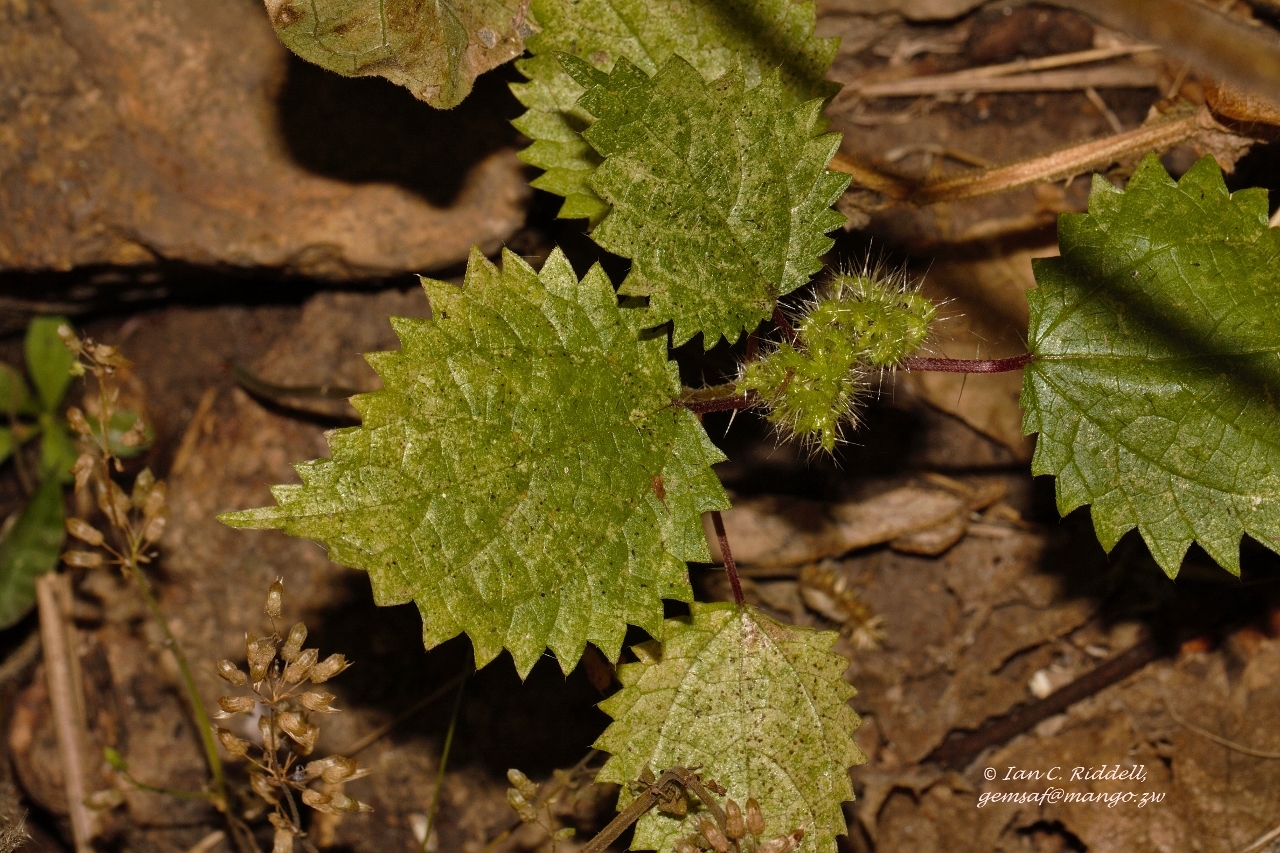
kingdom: Plantae
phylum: Tracheophyta
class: Magnoliopsida
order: Rosales
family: Urticaceae
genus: Girardinia
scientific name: Girardinia diversifolia
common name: Himalayan-nettle
